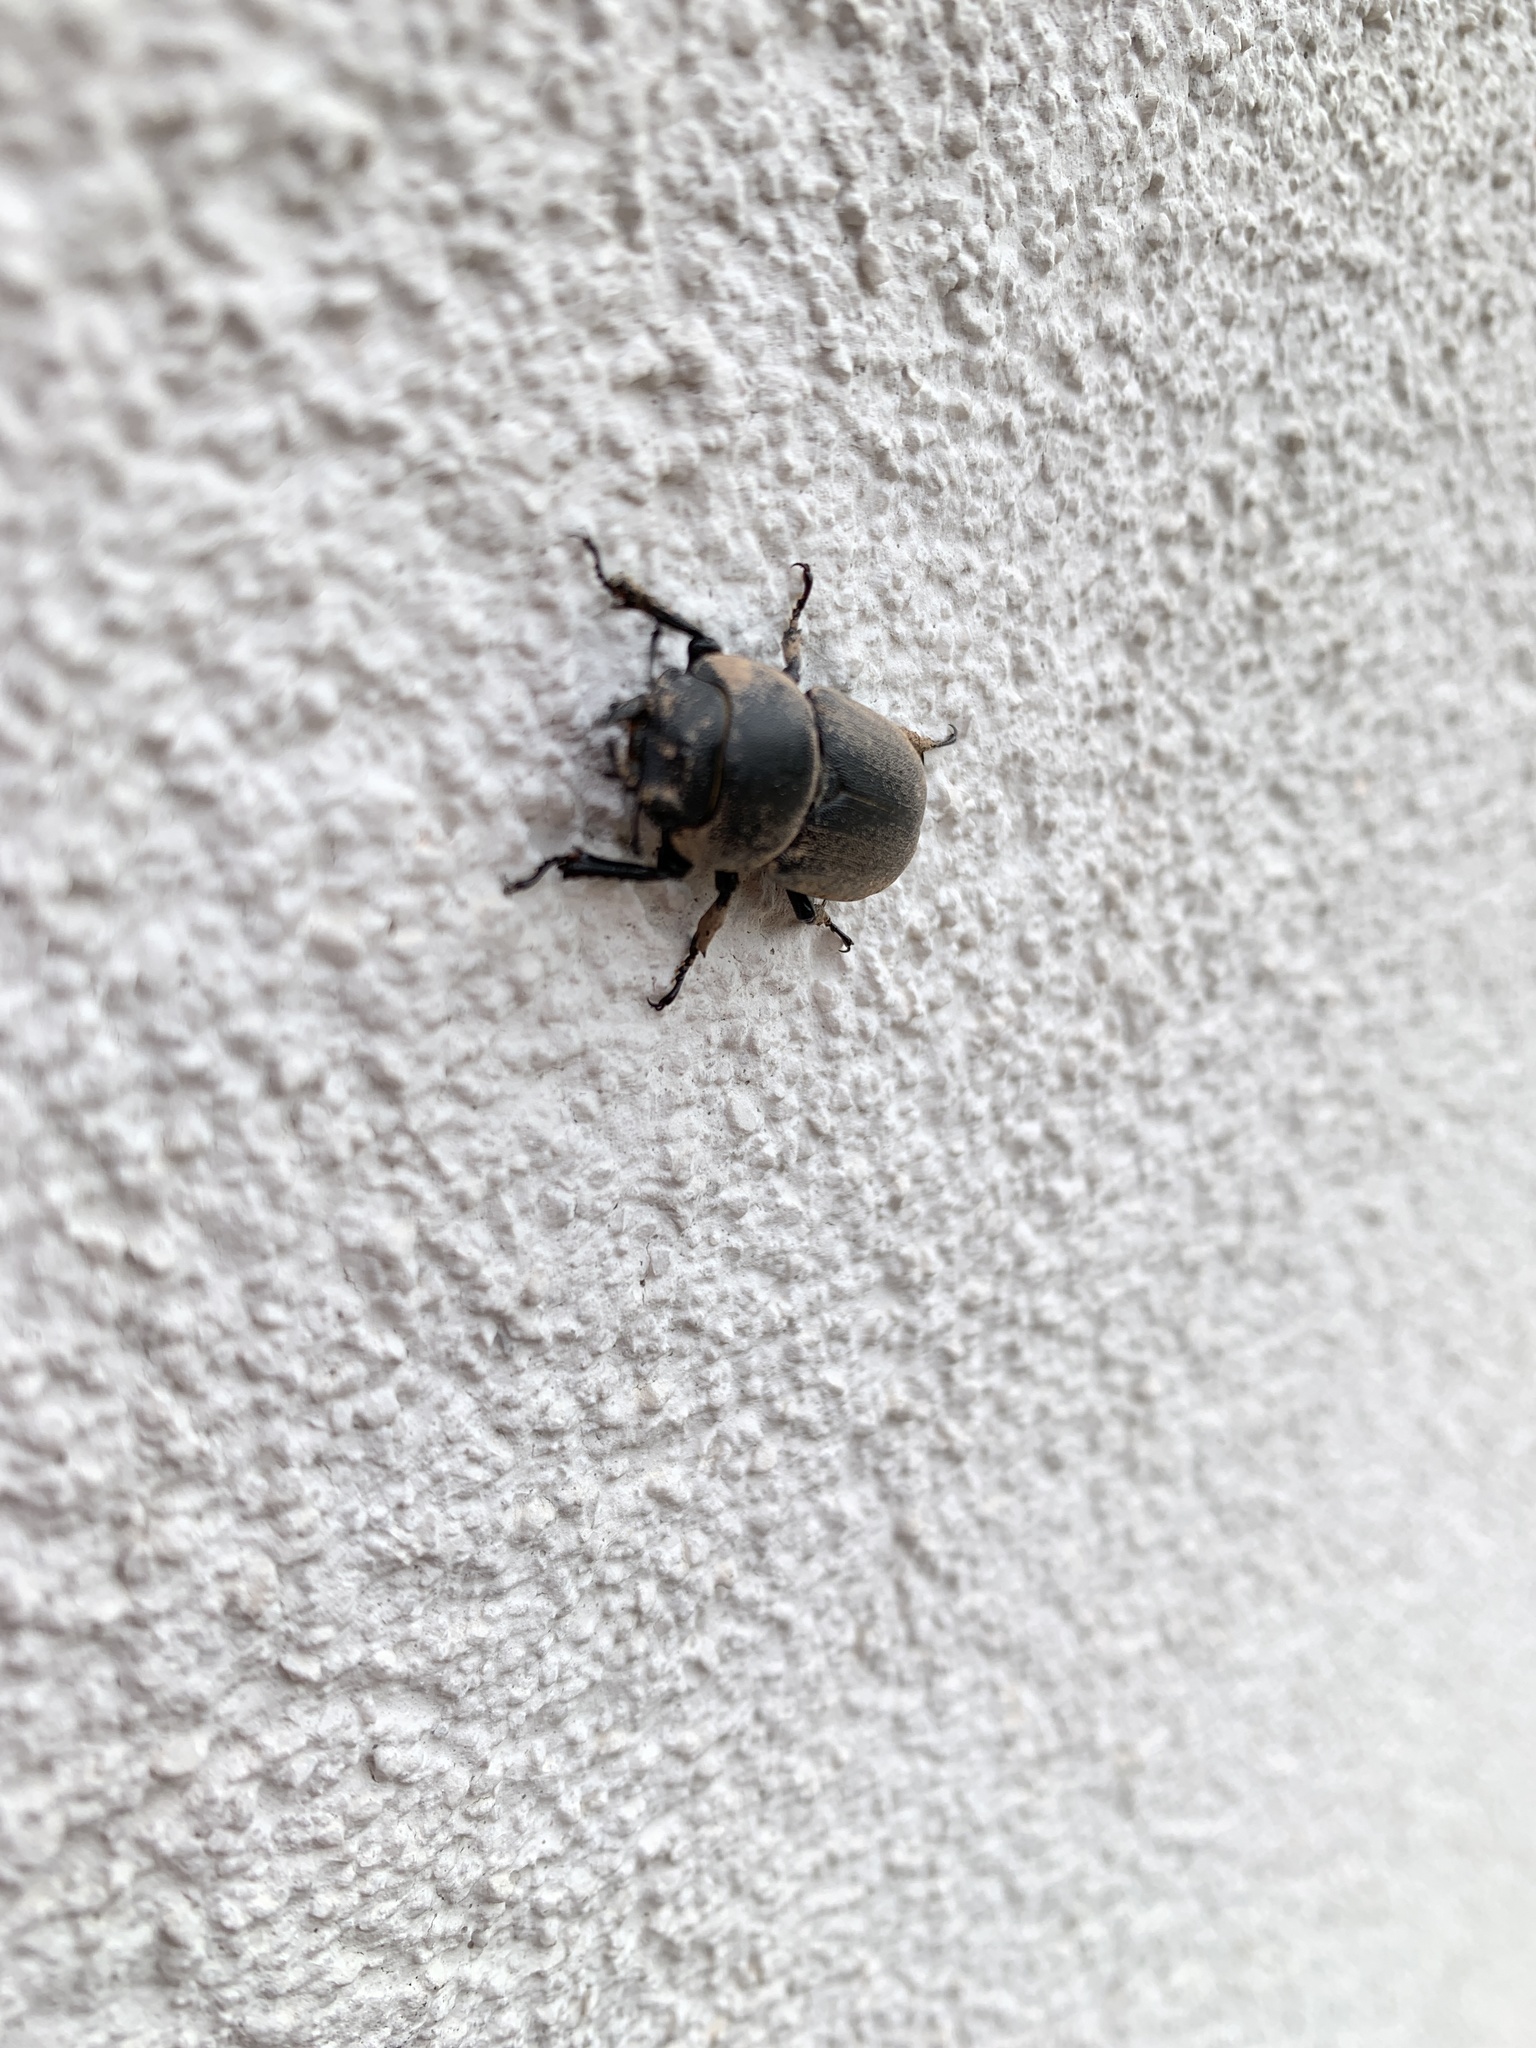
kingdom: Animalia
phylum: Arthropoda
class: Insecta
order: Coleoptera
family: Lucanidae
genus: Dorcus
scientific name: Dorcus parallelipipedus
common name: Lesser stag beetle
